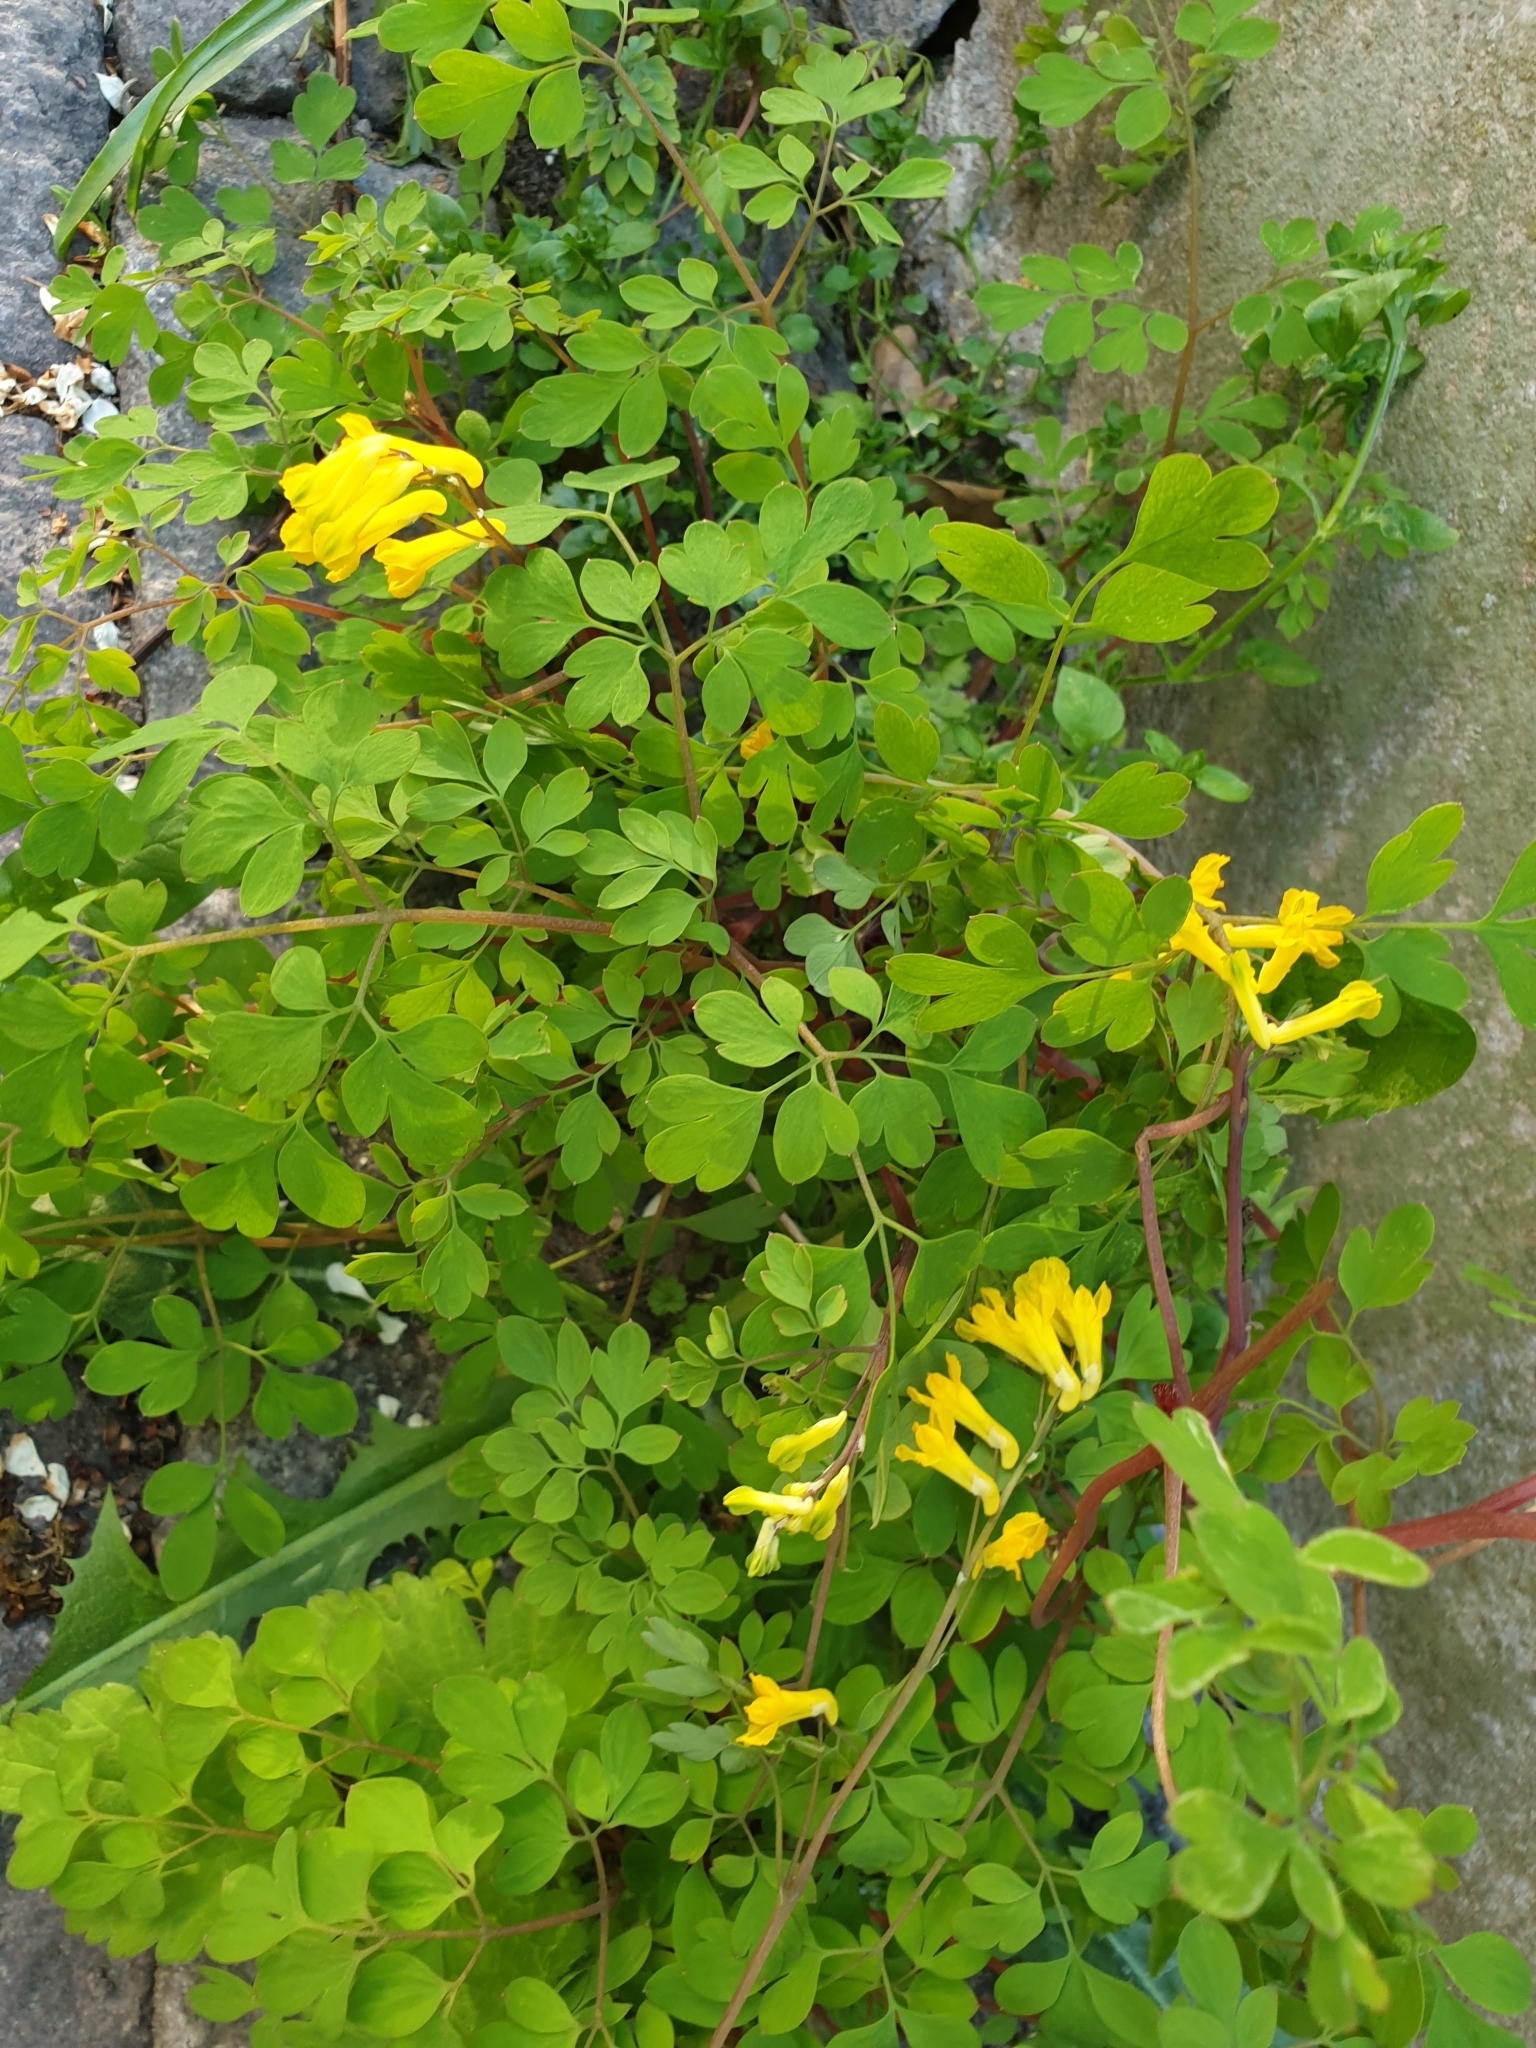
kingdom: Plantae
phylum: Tracheophyta
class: Magnoliopsida
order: Ranunculales
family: Papaveraceae
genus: Pseudofumaria
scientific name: Pseudofumaria lutea
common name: Yellow corydalis
